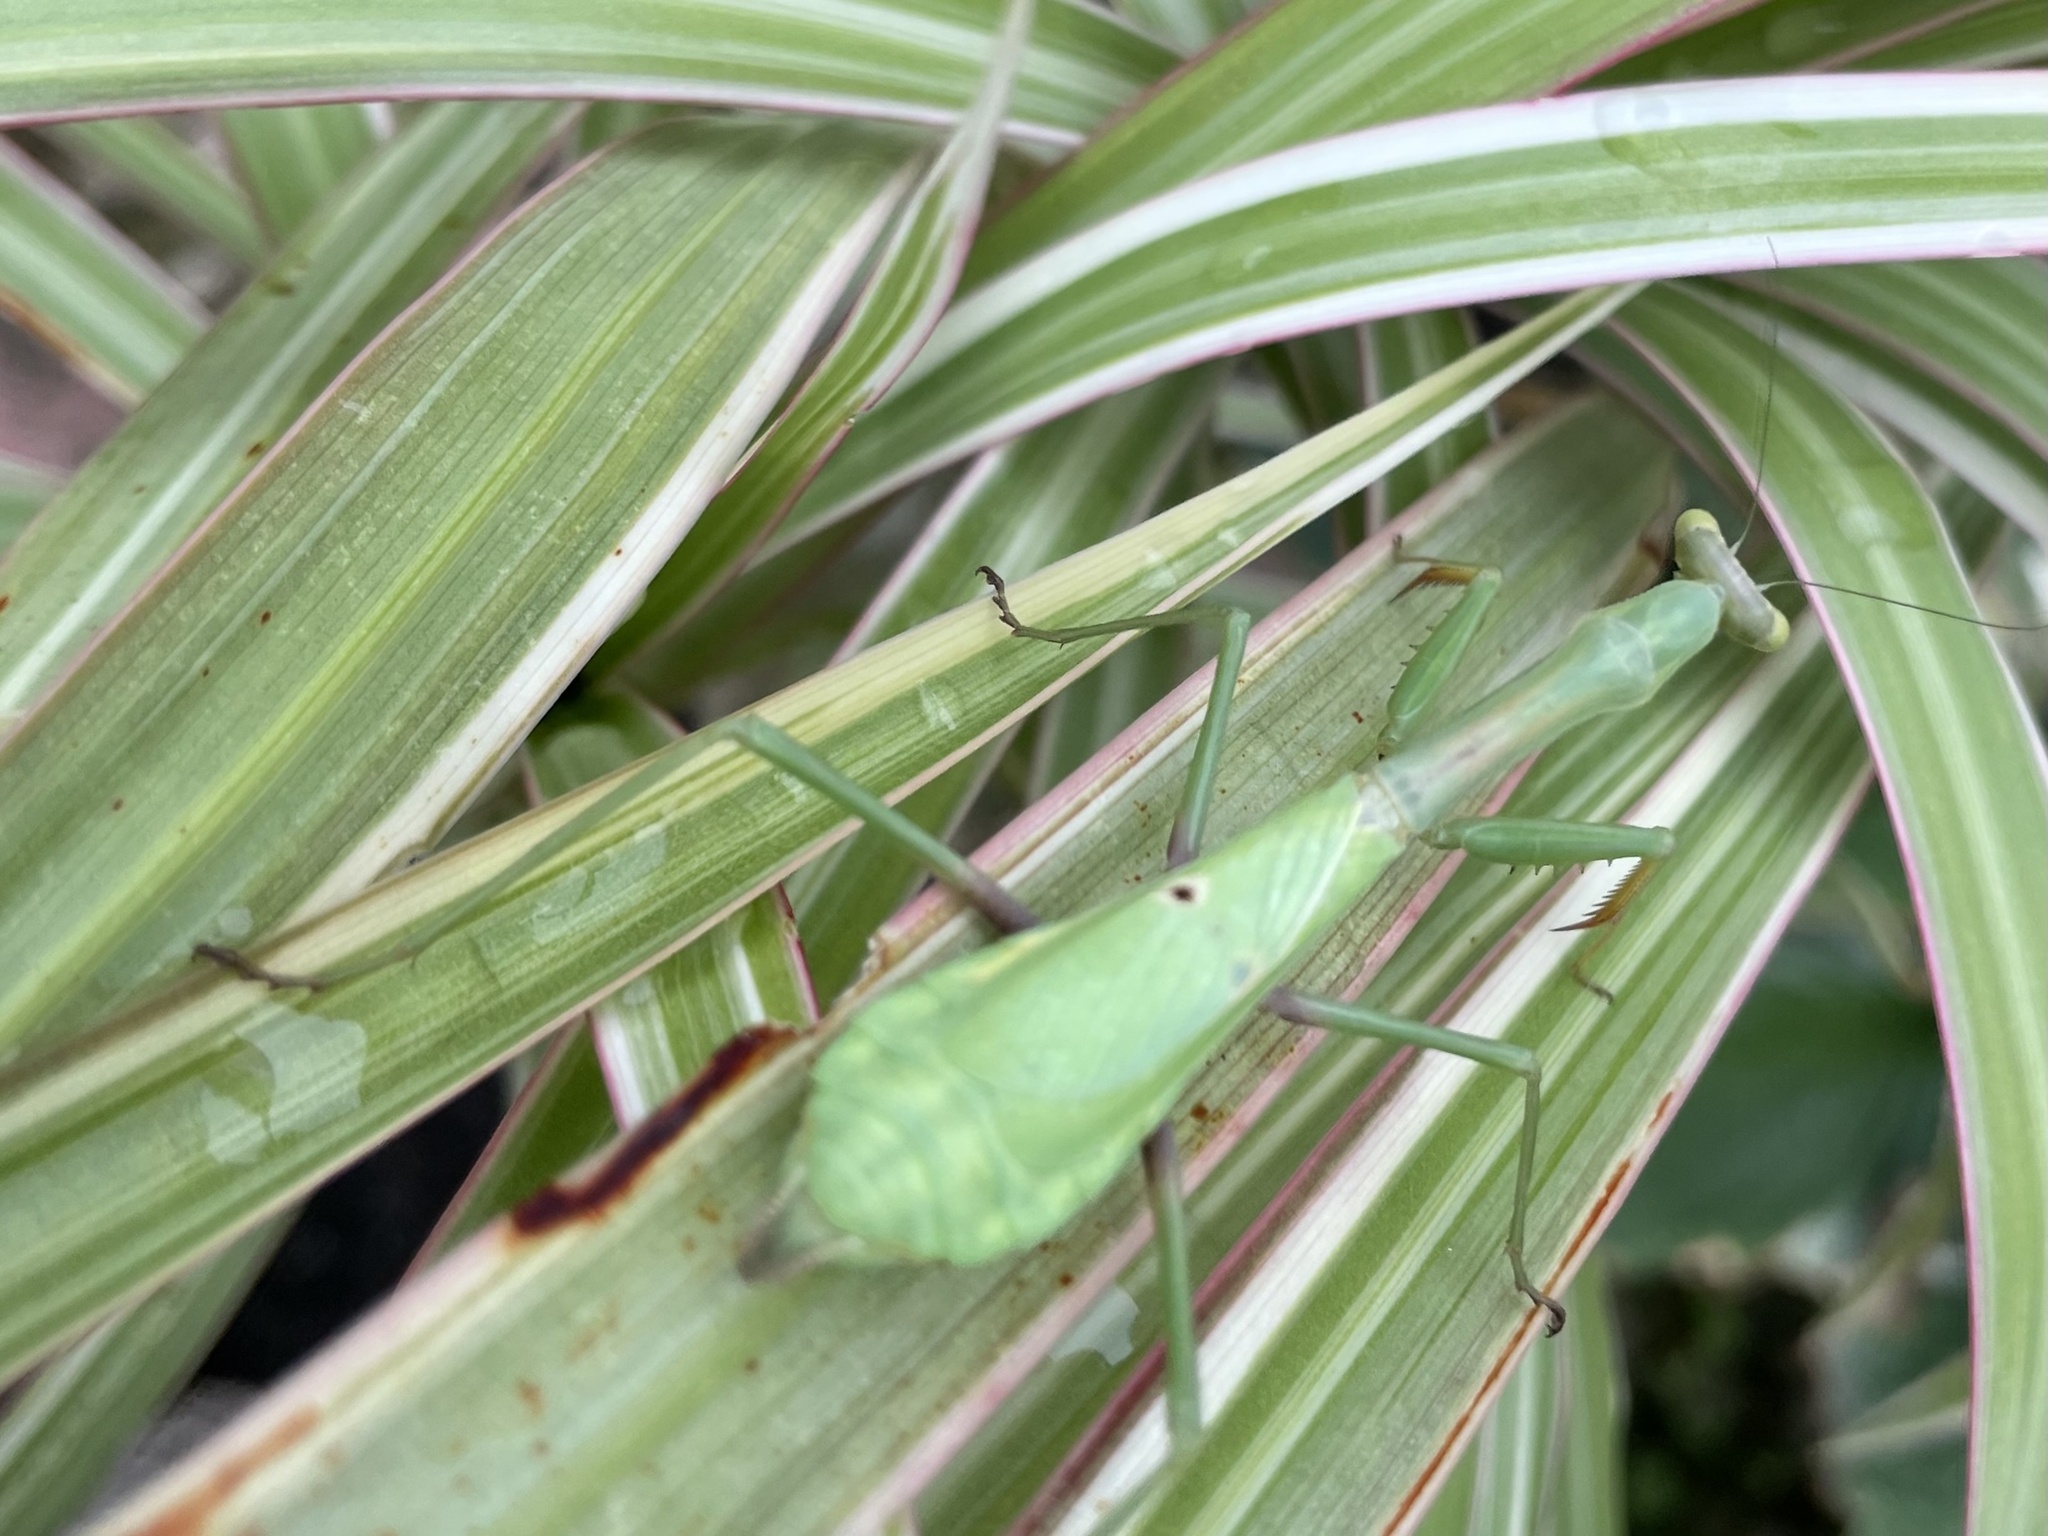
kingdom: Animalia
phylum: Arthropoda
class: Insecta
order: Mantodea
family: Mantidae
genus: Stagmomantis
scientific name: Stagmomantis carolina
